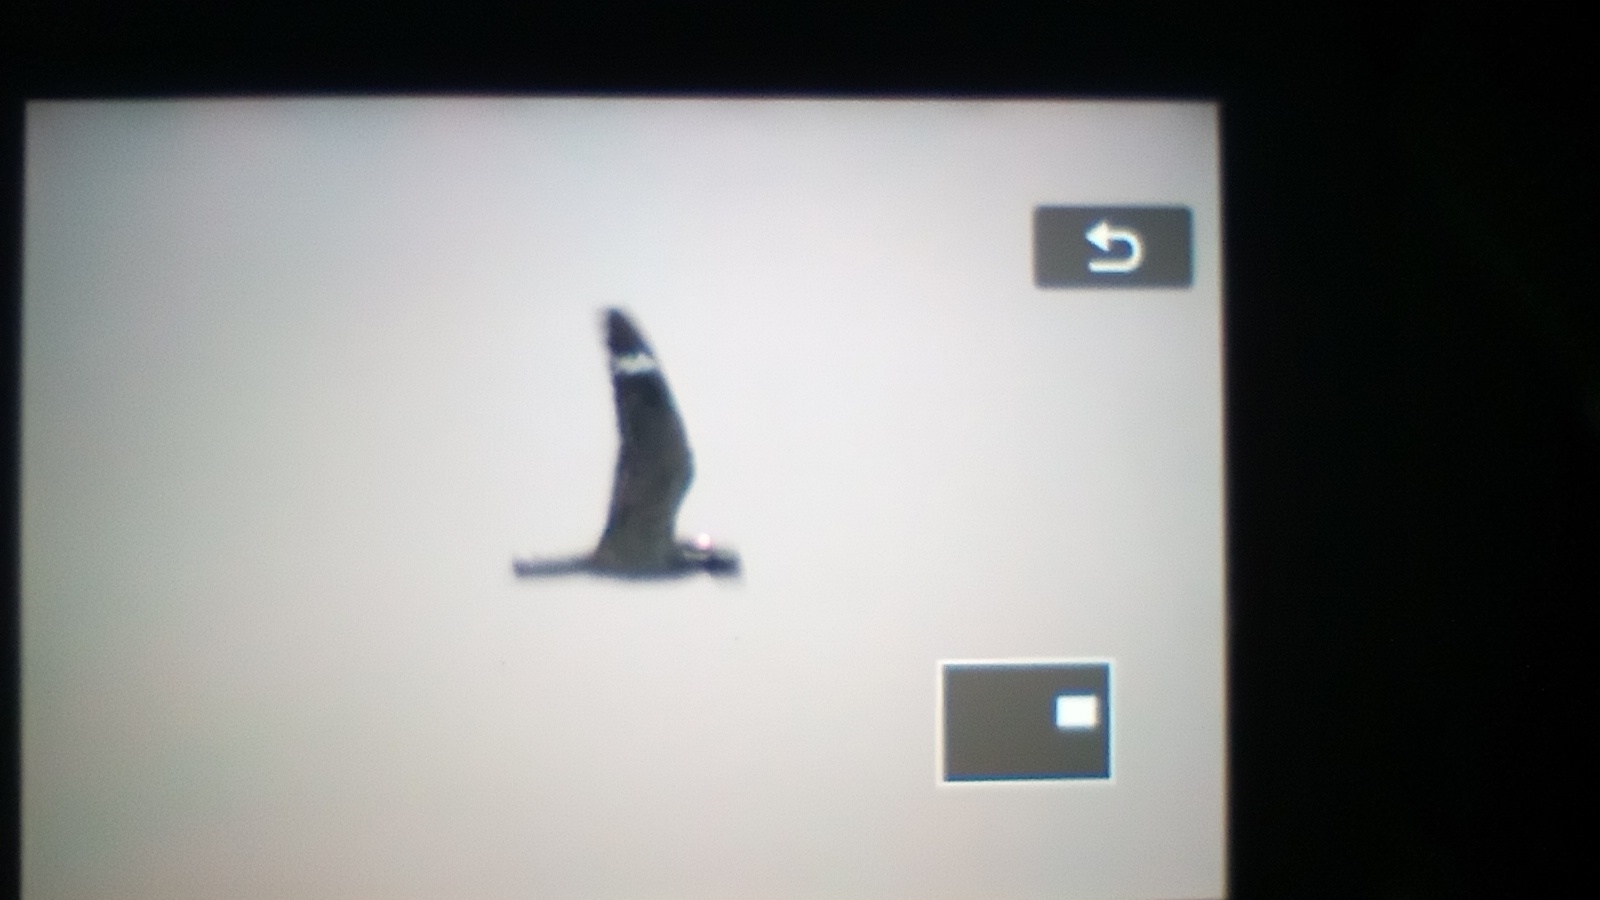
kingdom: Animalia
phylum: Chordata
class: Aves
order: Caprimulgiformes
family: Caprimulgidae
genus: Chordeiles
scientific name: Chordeiles acutipennis
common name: Lesser nighthawk
